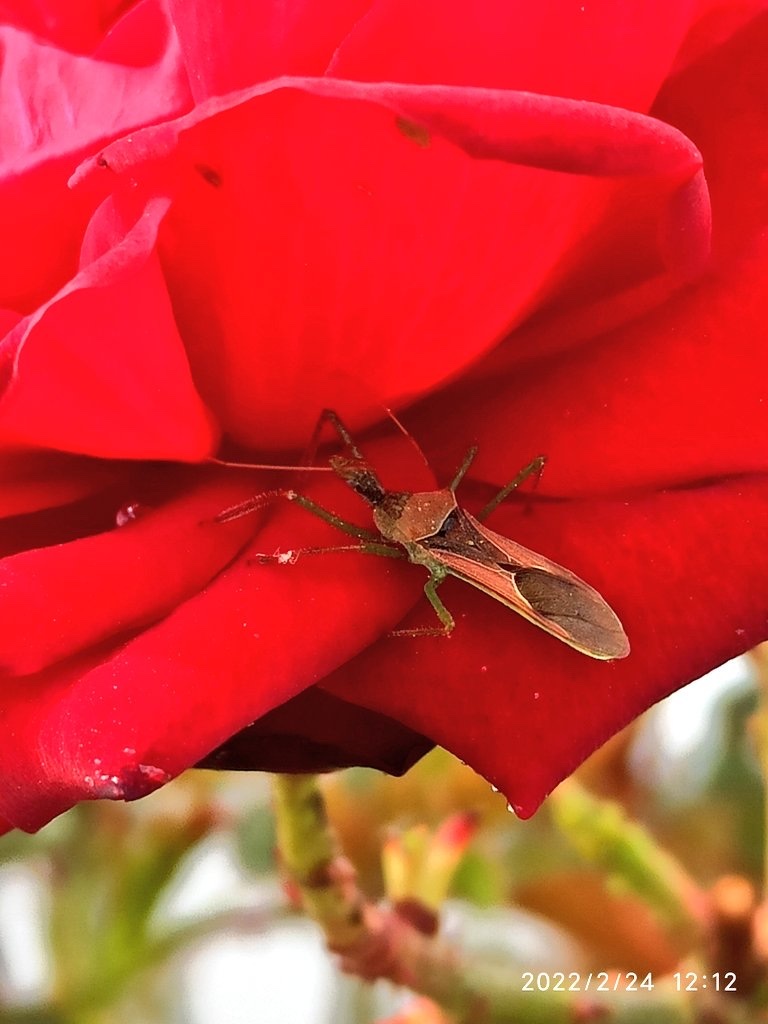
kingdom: Animalia
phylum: Arthropoda
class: Insecta
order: Hemiptera
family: Reduviidae
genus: Zelus
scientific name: Zelus renardii
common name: Assassin bug
